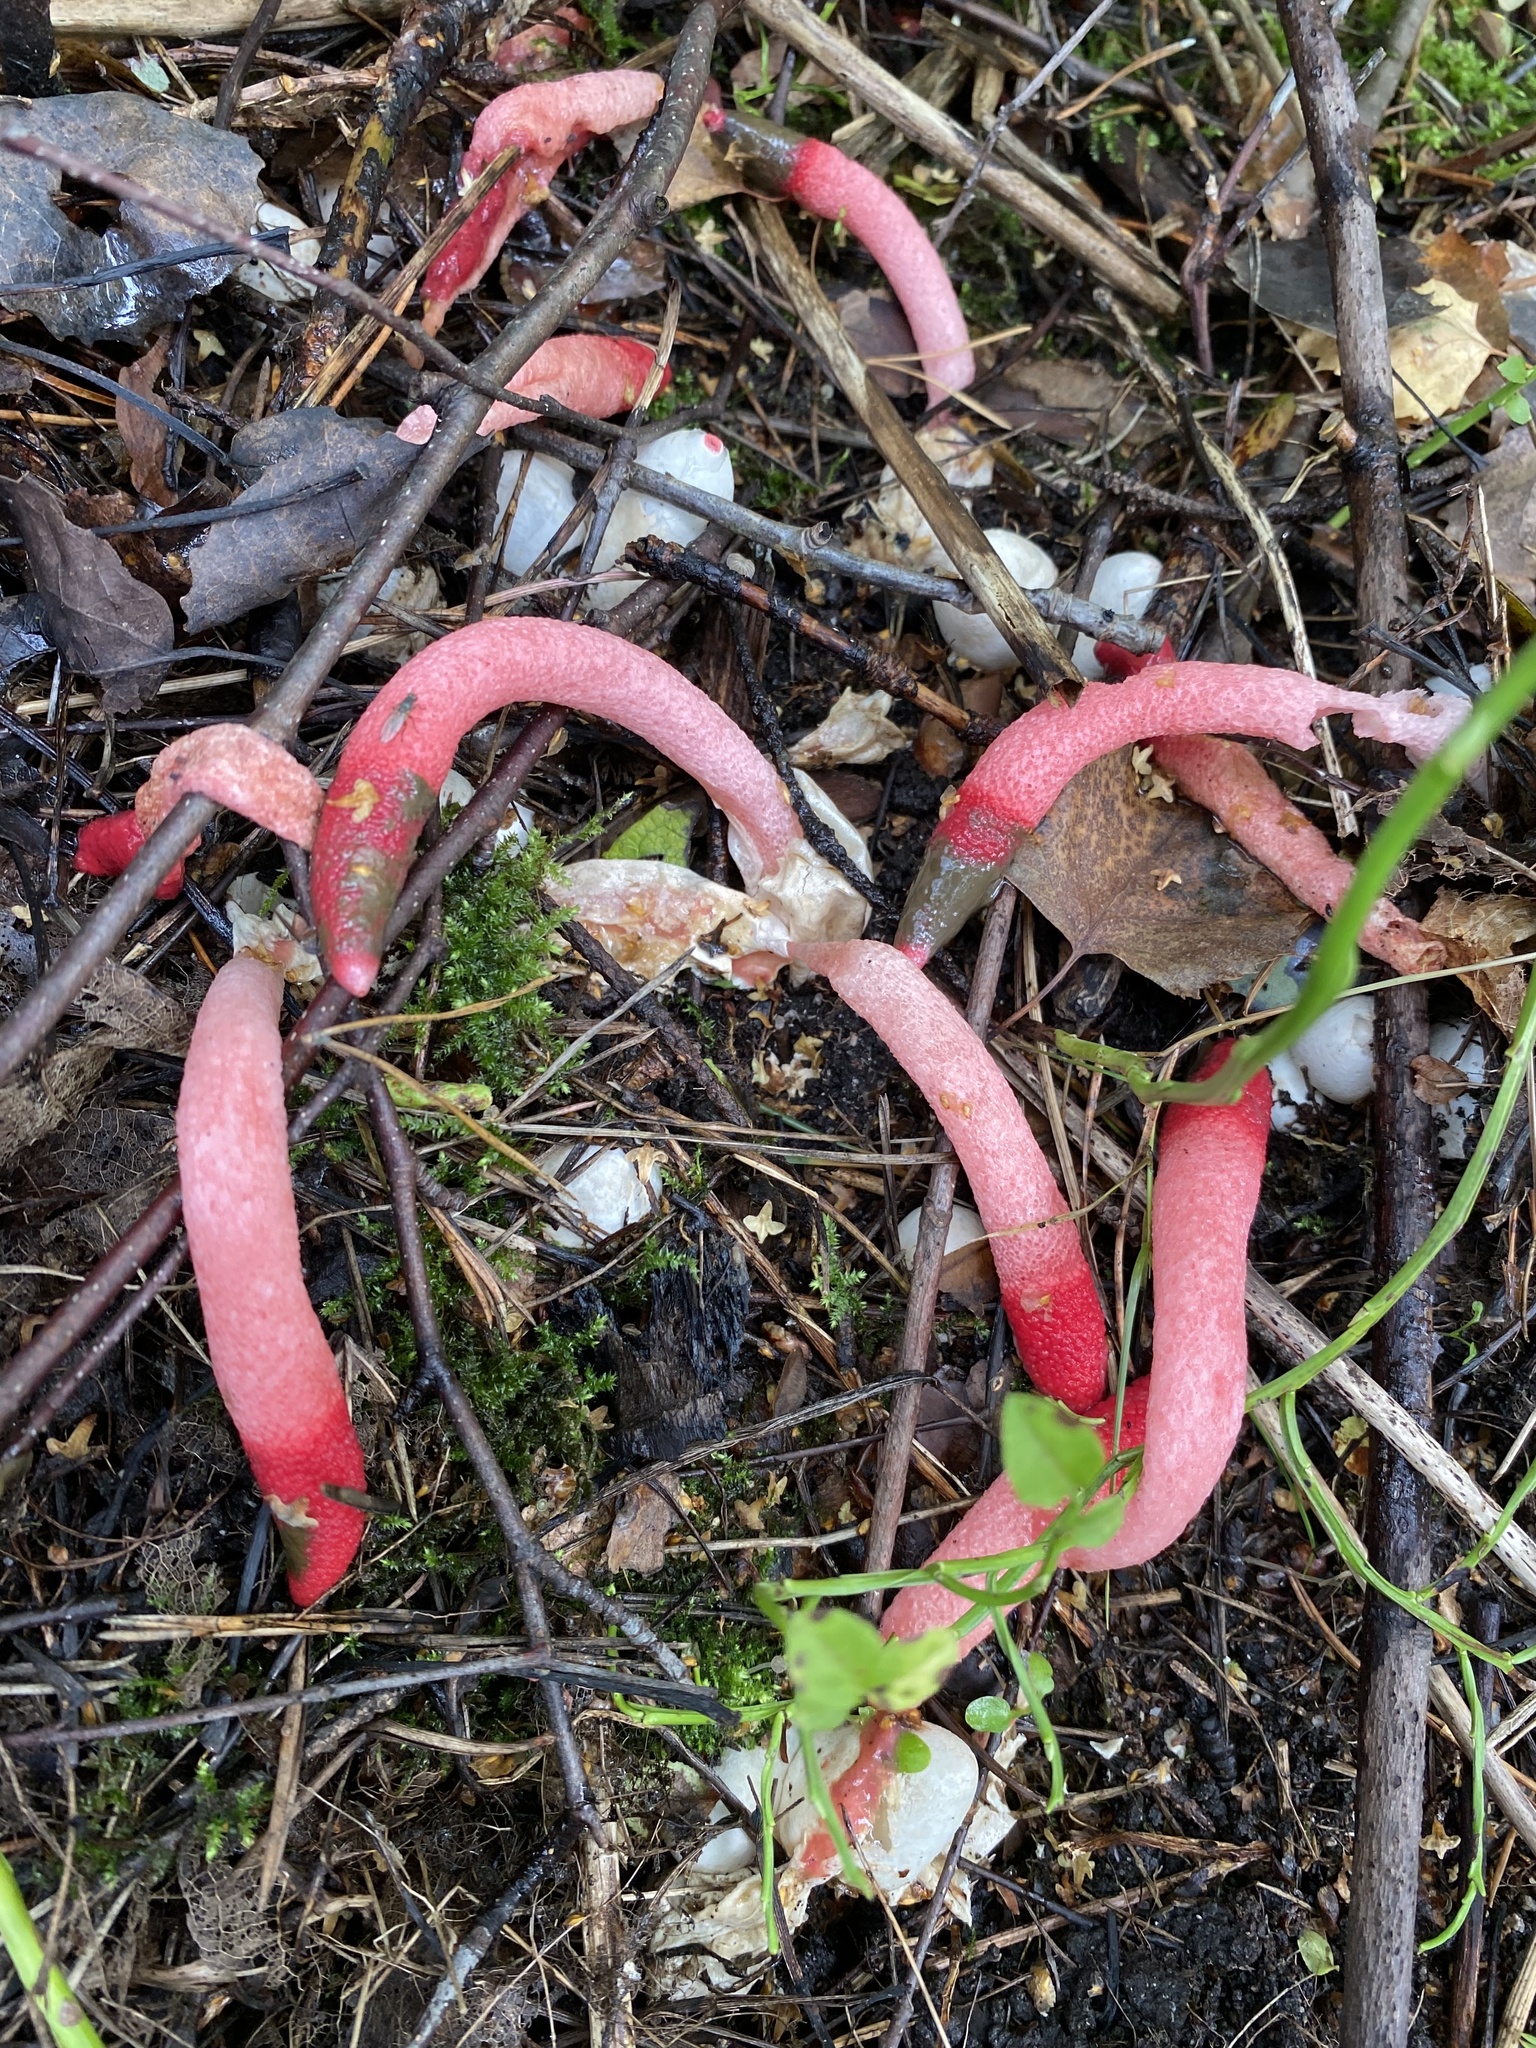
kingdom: Fungi
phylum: Basidiomycota
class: Agaricomycetes
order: Phallales
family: Phallaceae
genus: Mutinus
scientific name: Mutinus ravenelii
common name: Red stinkhorn
